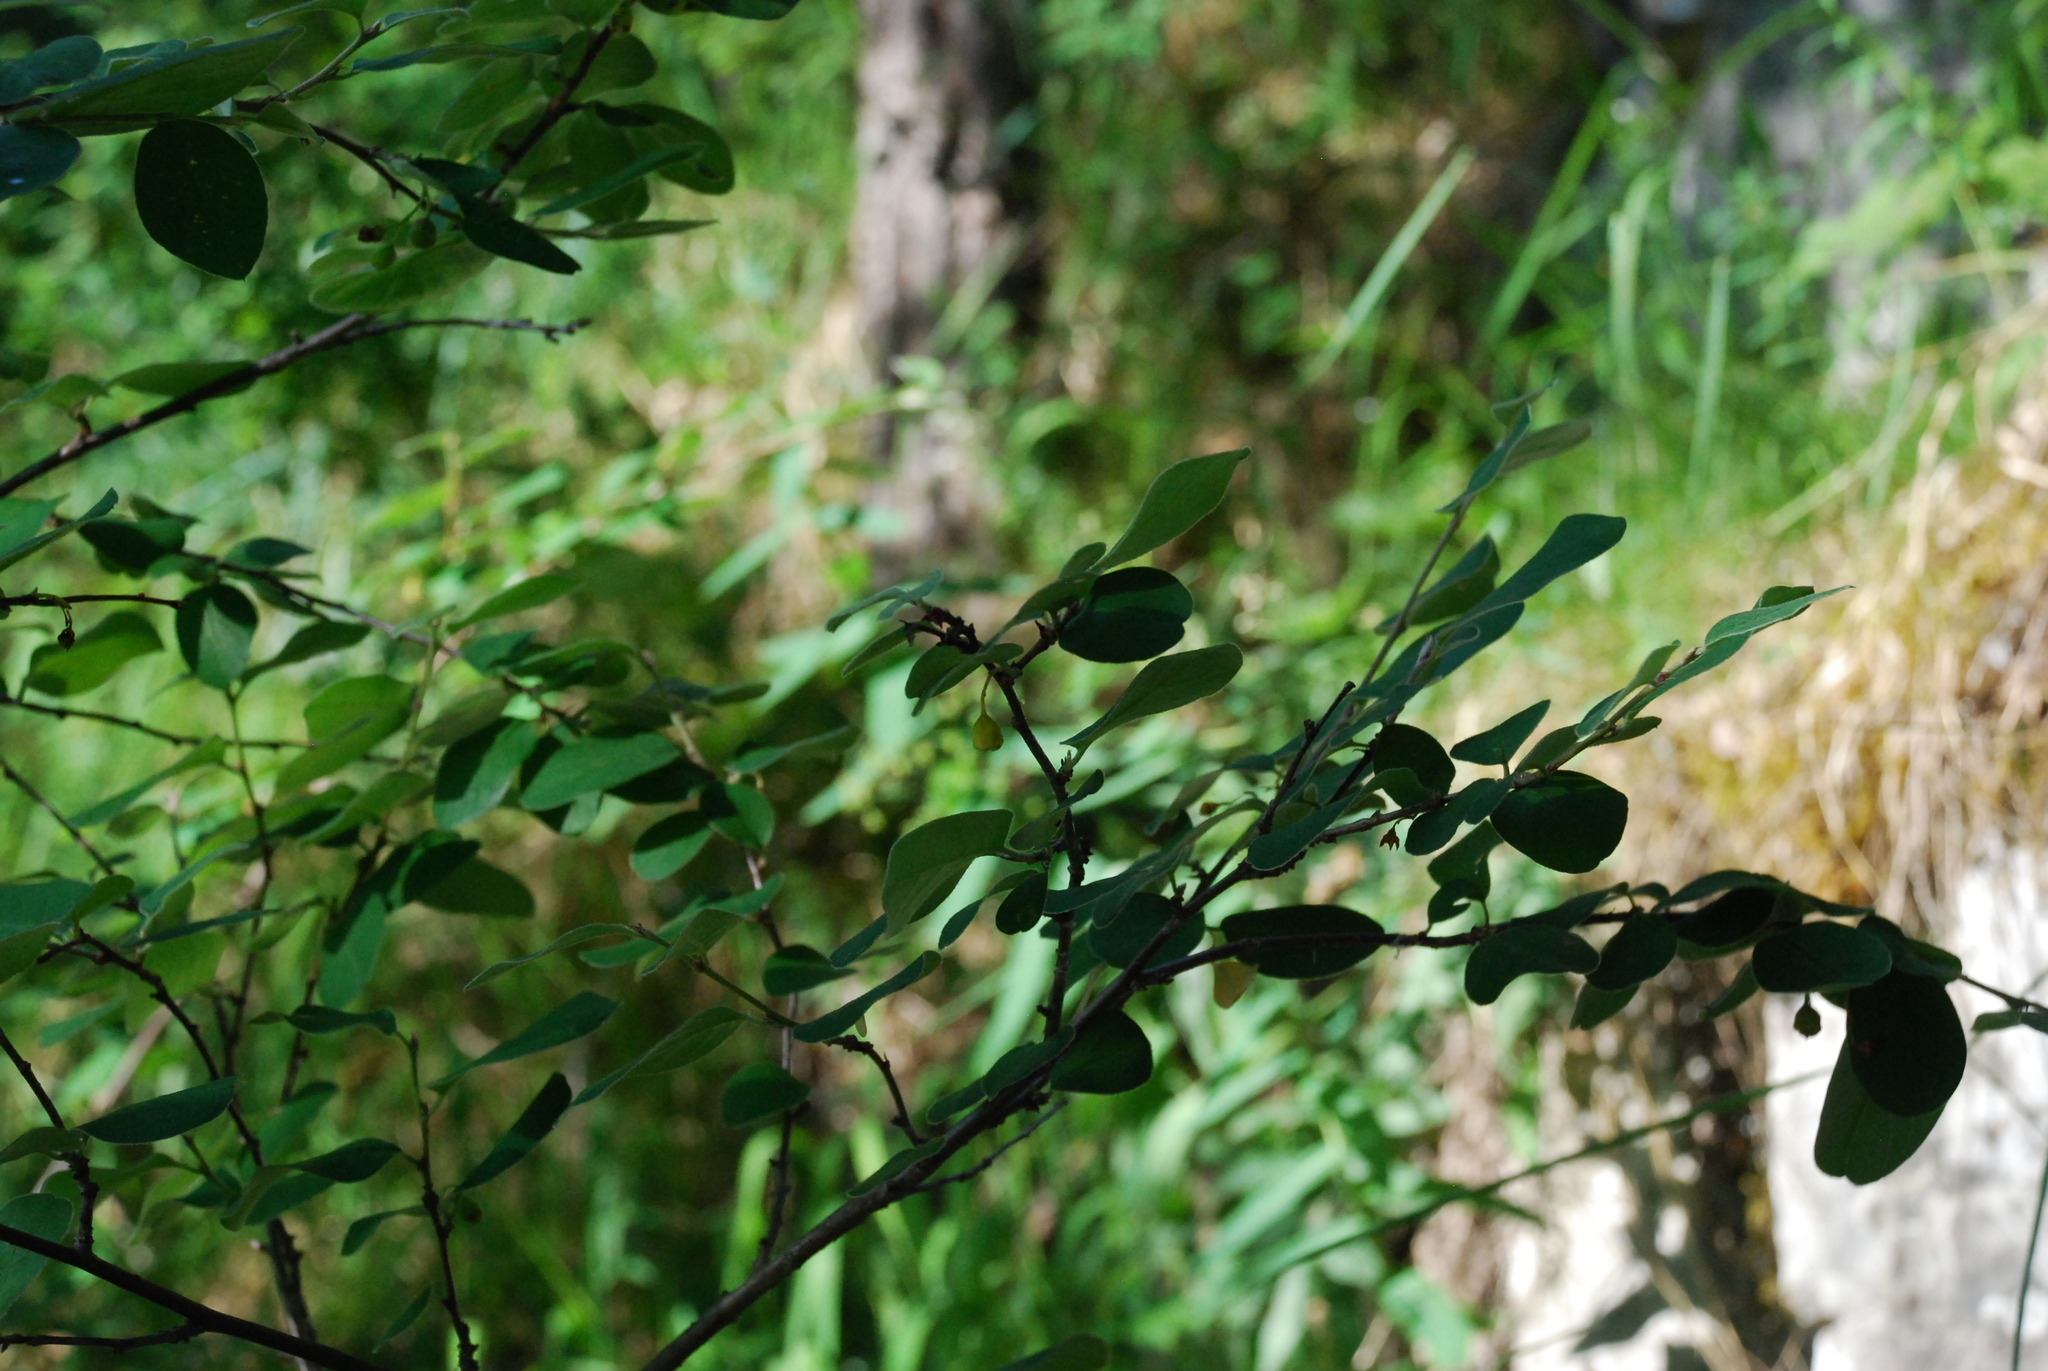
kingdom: Plantae
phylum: Tracheophyta
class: Magnoliopsida
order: Rosales
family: Rosaceae
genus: Cotoneaster
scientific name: Cotoneaster melanocarpus
